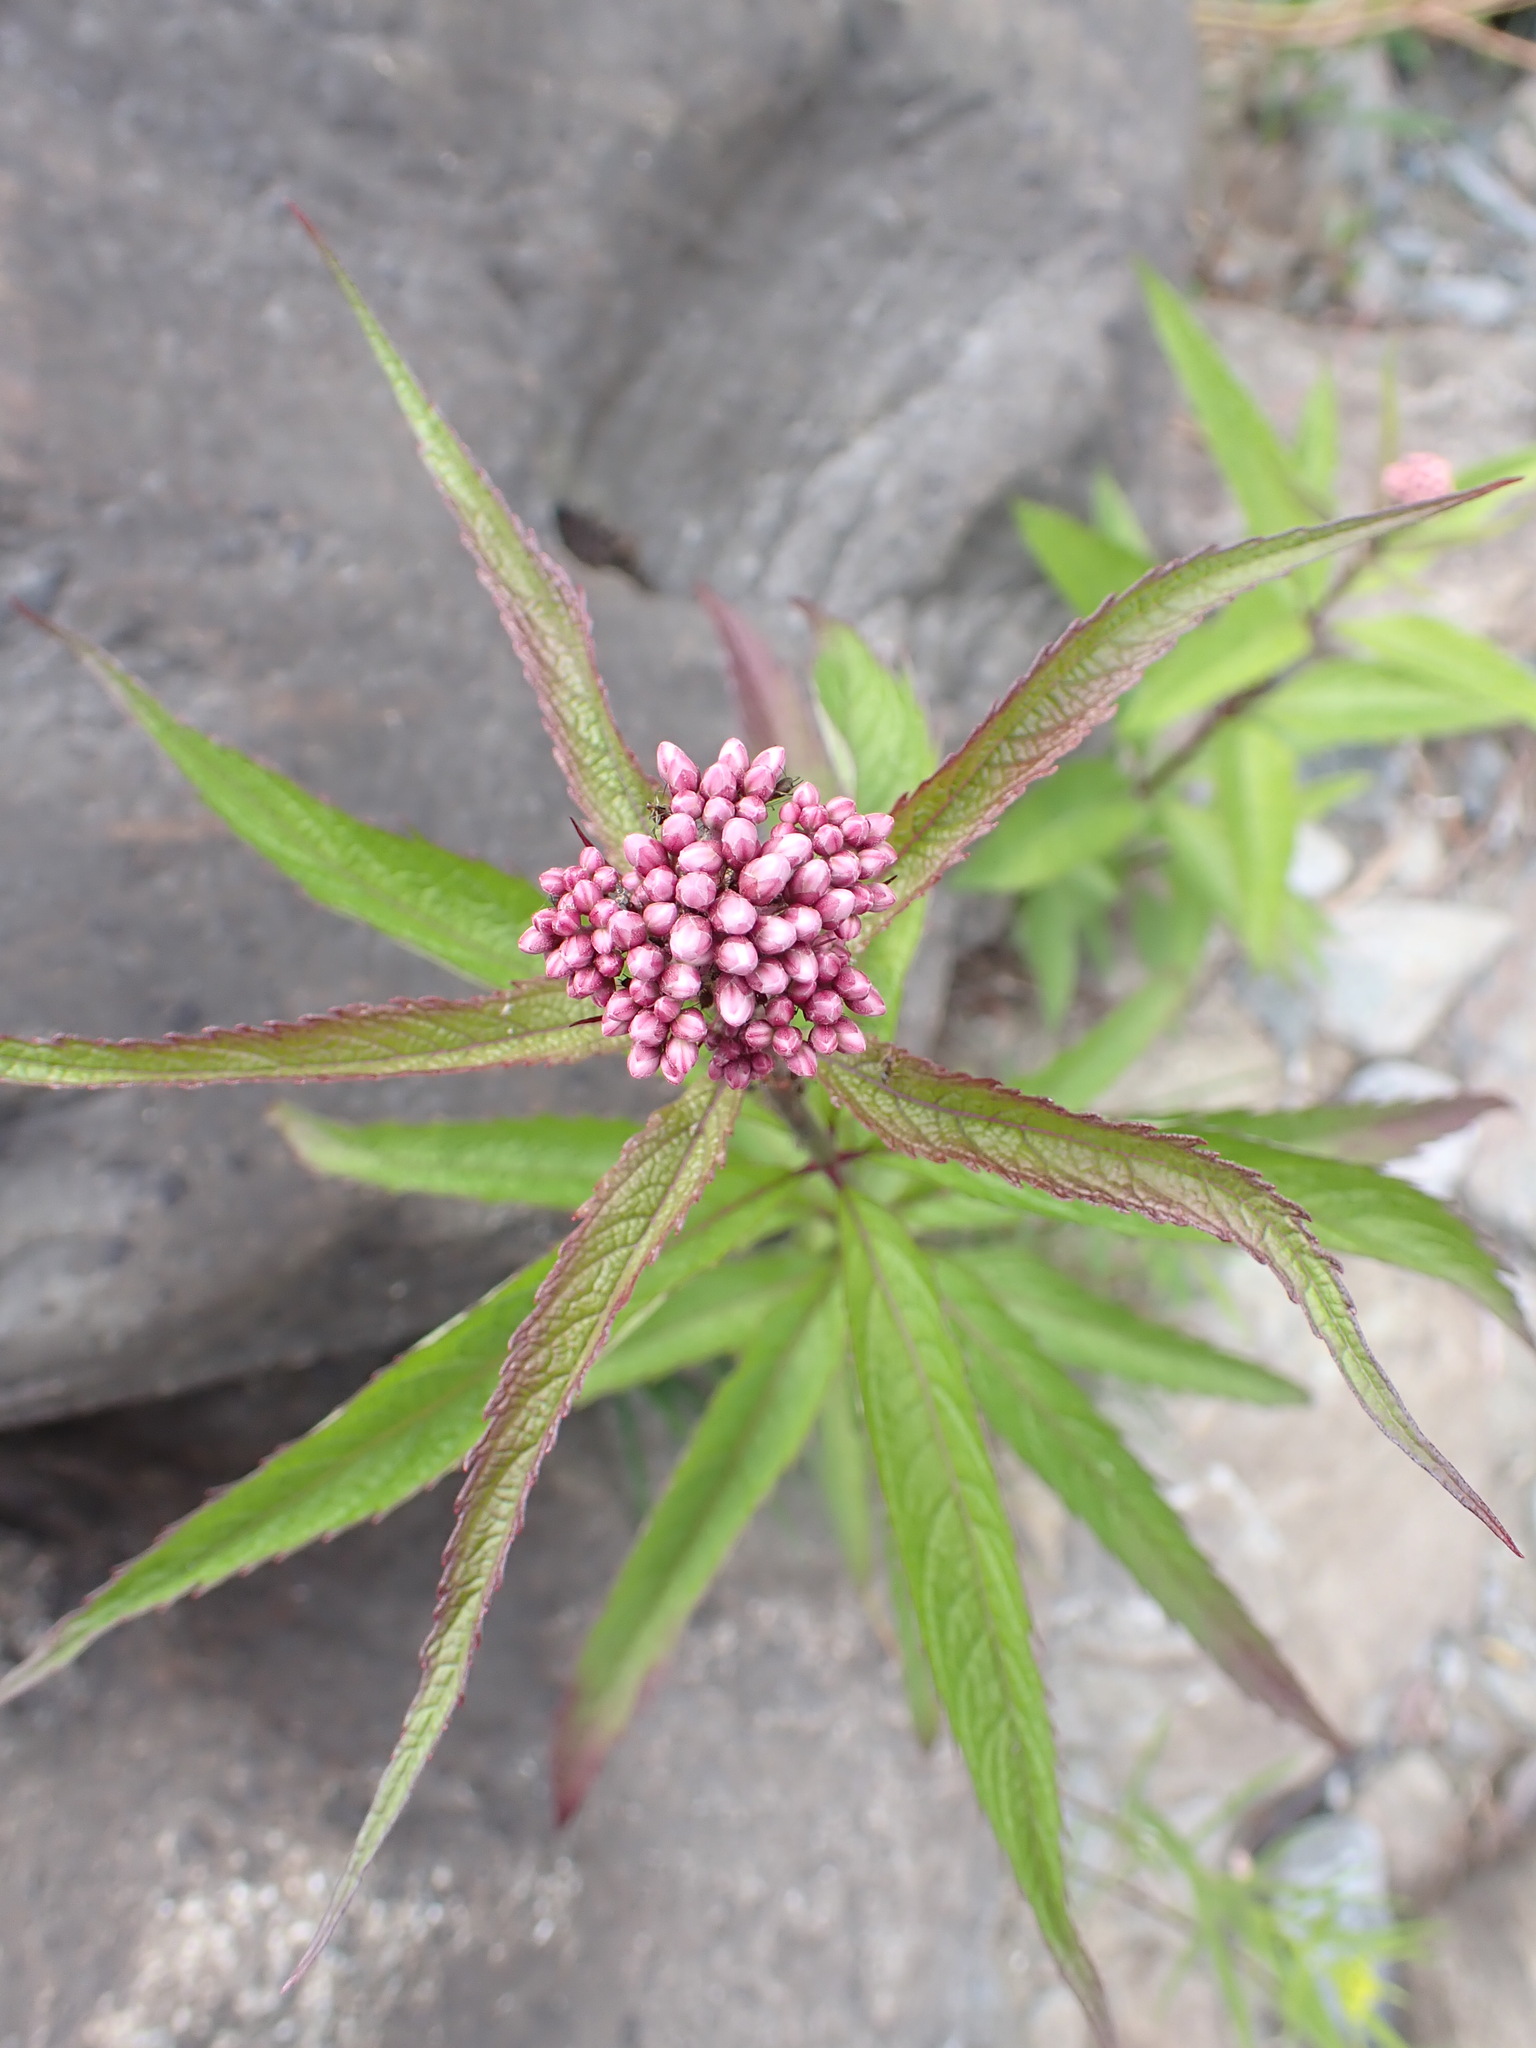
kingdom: Plantae
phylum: Tracheophyta
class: Magnoliopsida
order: Asterales
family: Asteraceae
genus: Eutrochium
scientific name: Eutrochium maculatum
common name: Spotted joe pye weed
